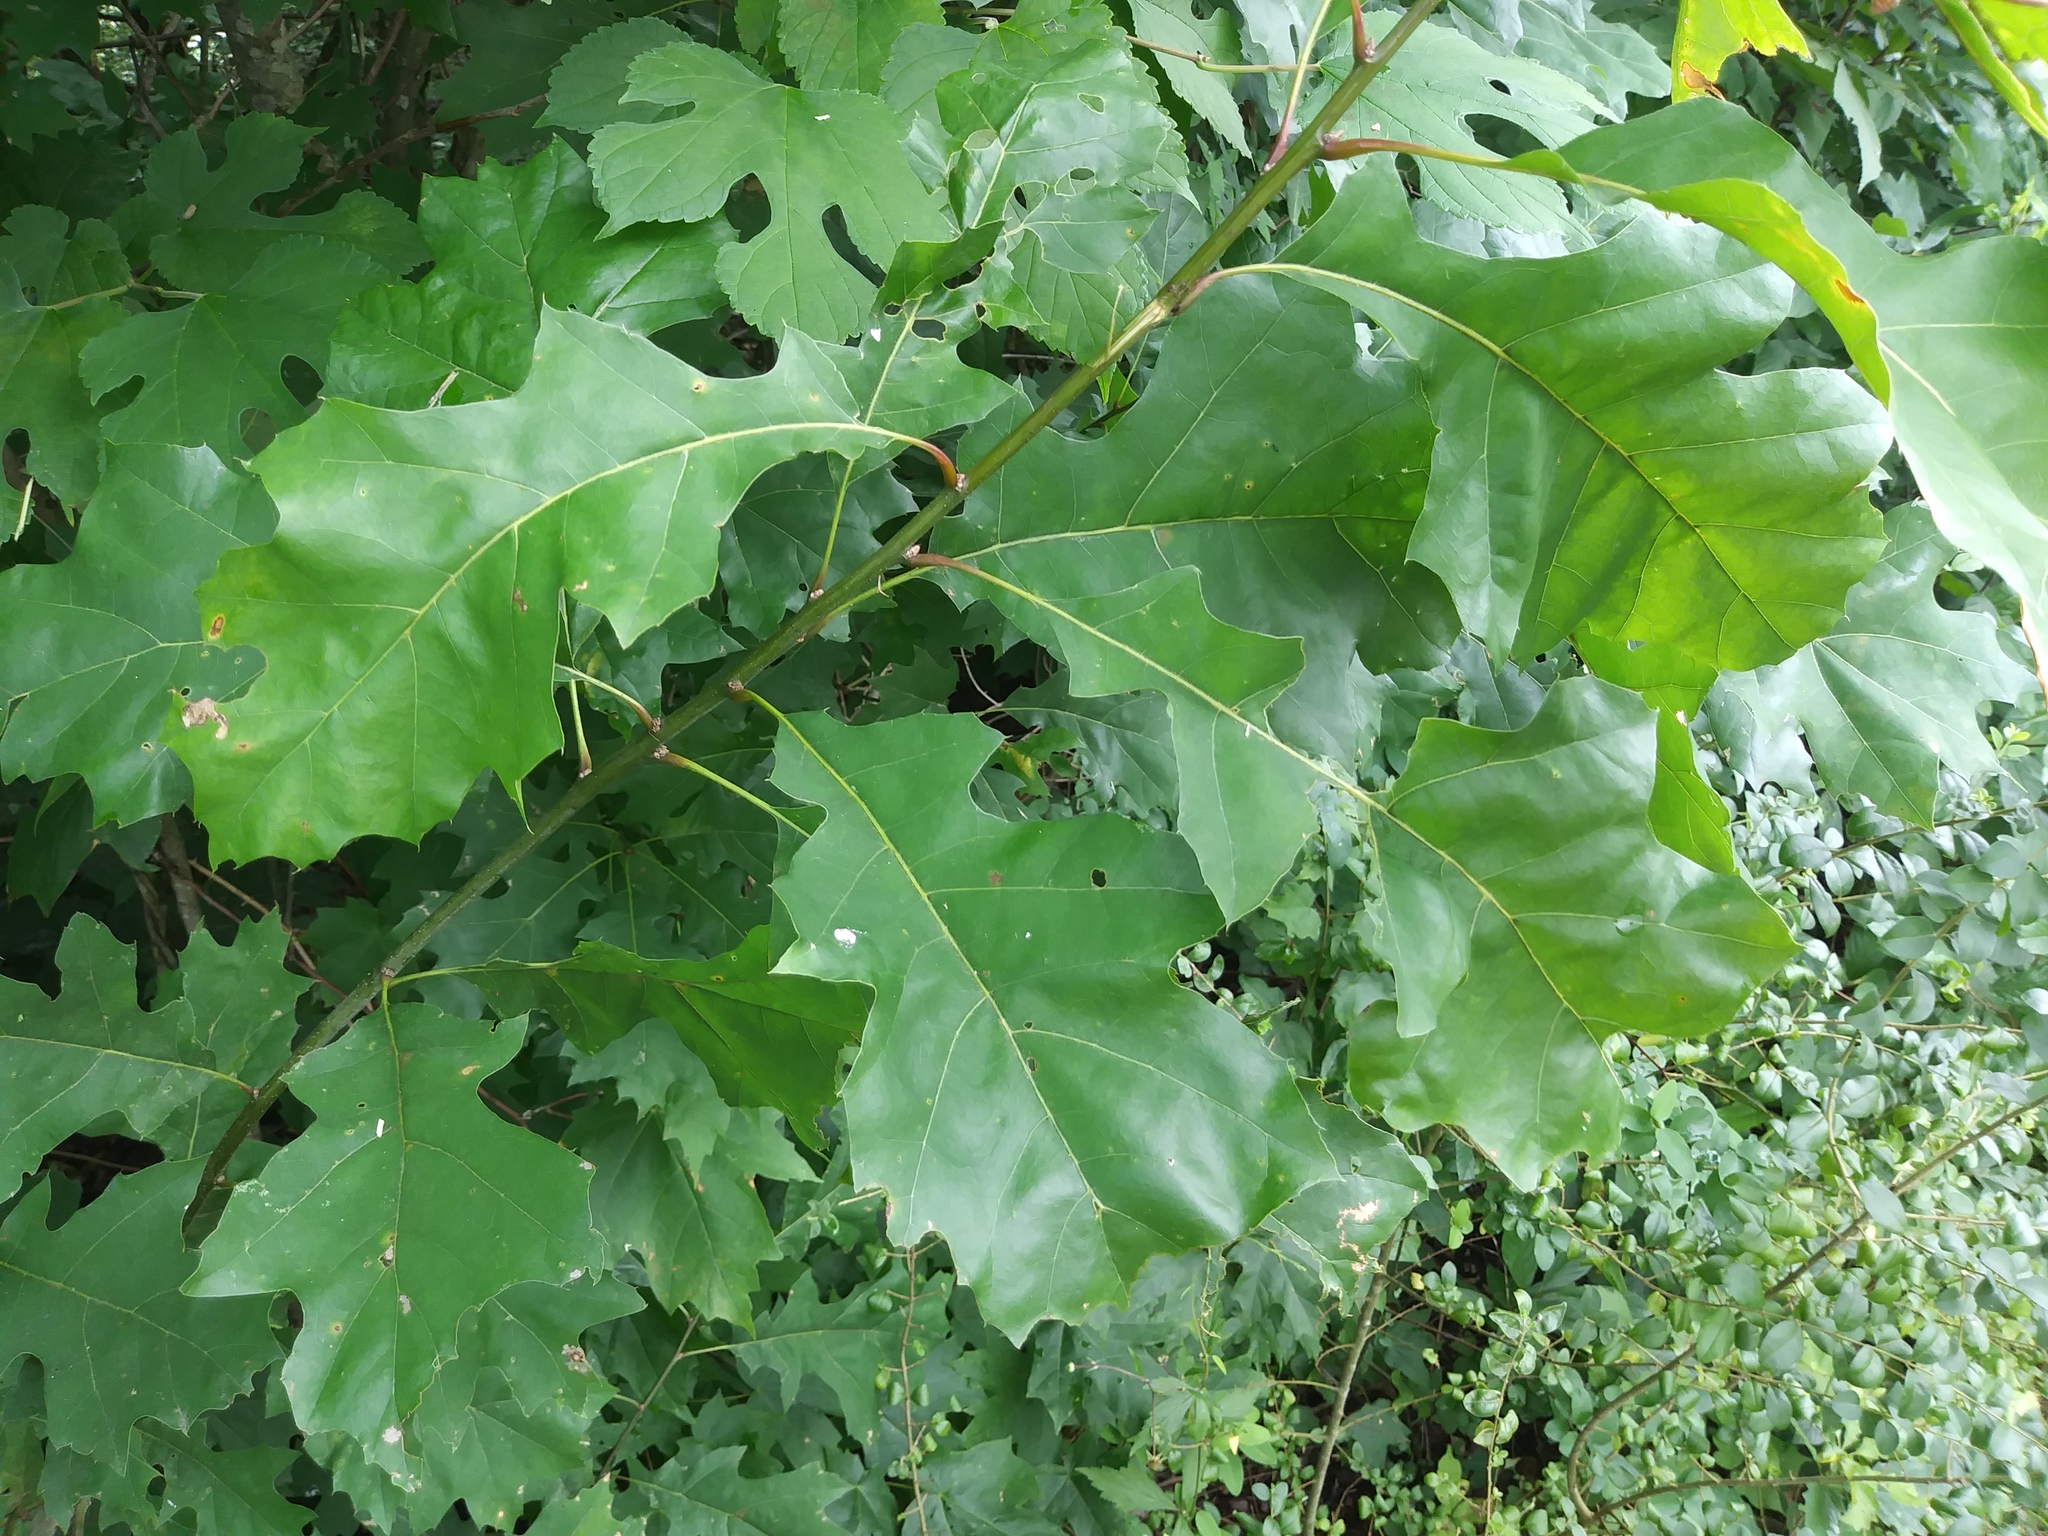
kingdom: Plantae
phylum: Tracheophyta
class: Magnoliopsida
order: Fagales
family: Fagaceae
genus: Quercus
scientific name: Quercus velutina
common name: Black oak
